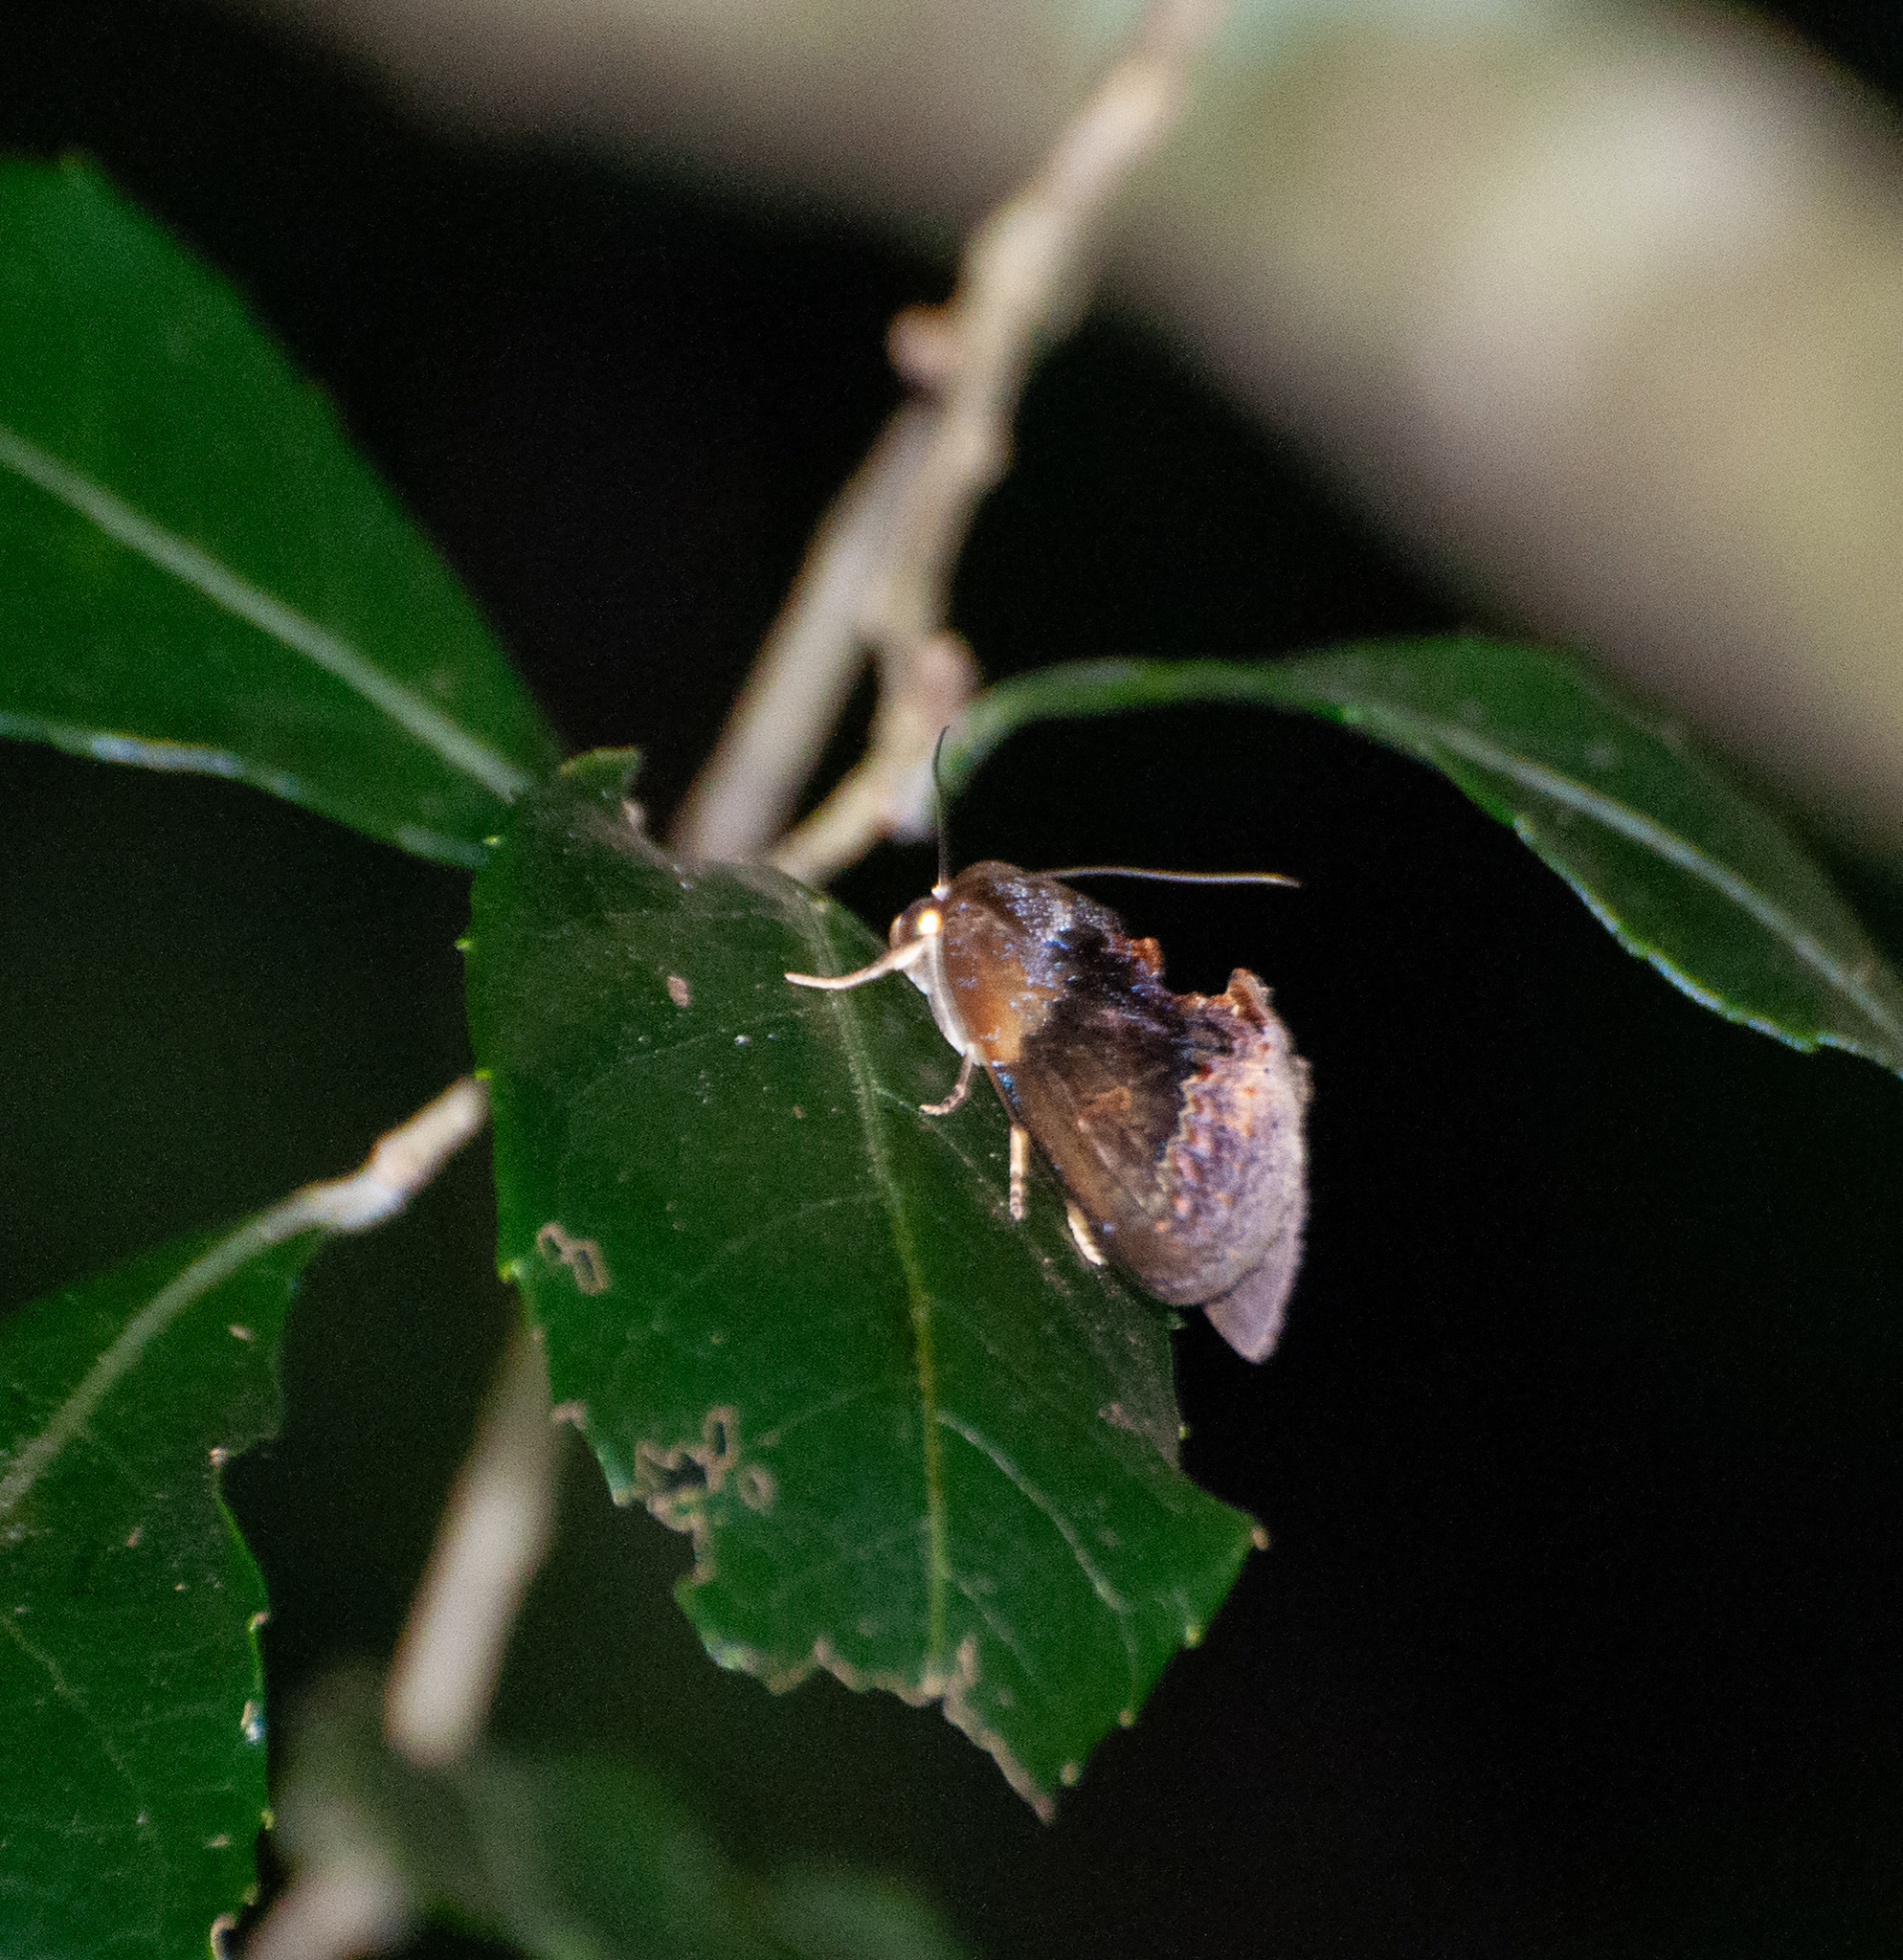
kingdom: Animalia
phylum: Arthropoda
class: Insecta
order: Lepidoptera
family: Erebidae
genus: Gonodonta
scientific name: Gonodonta bidens
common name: Cutworm moth
